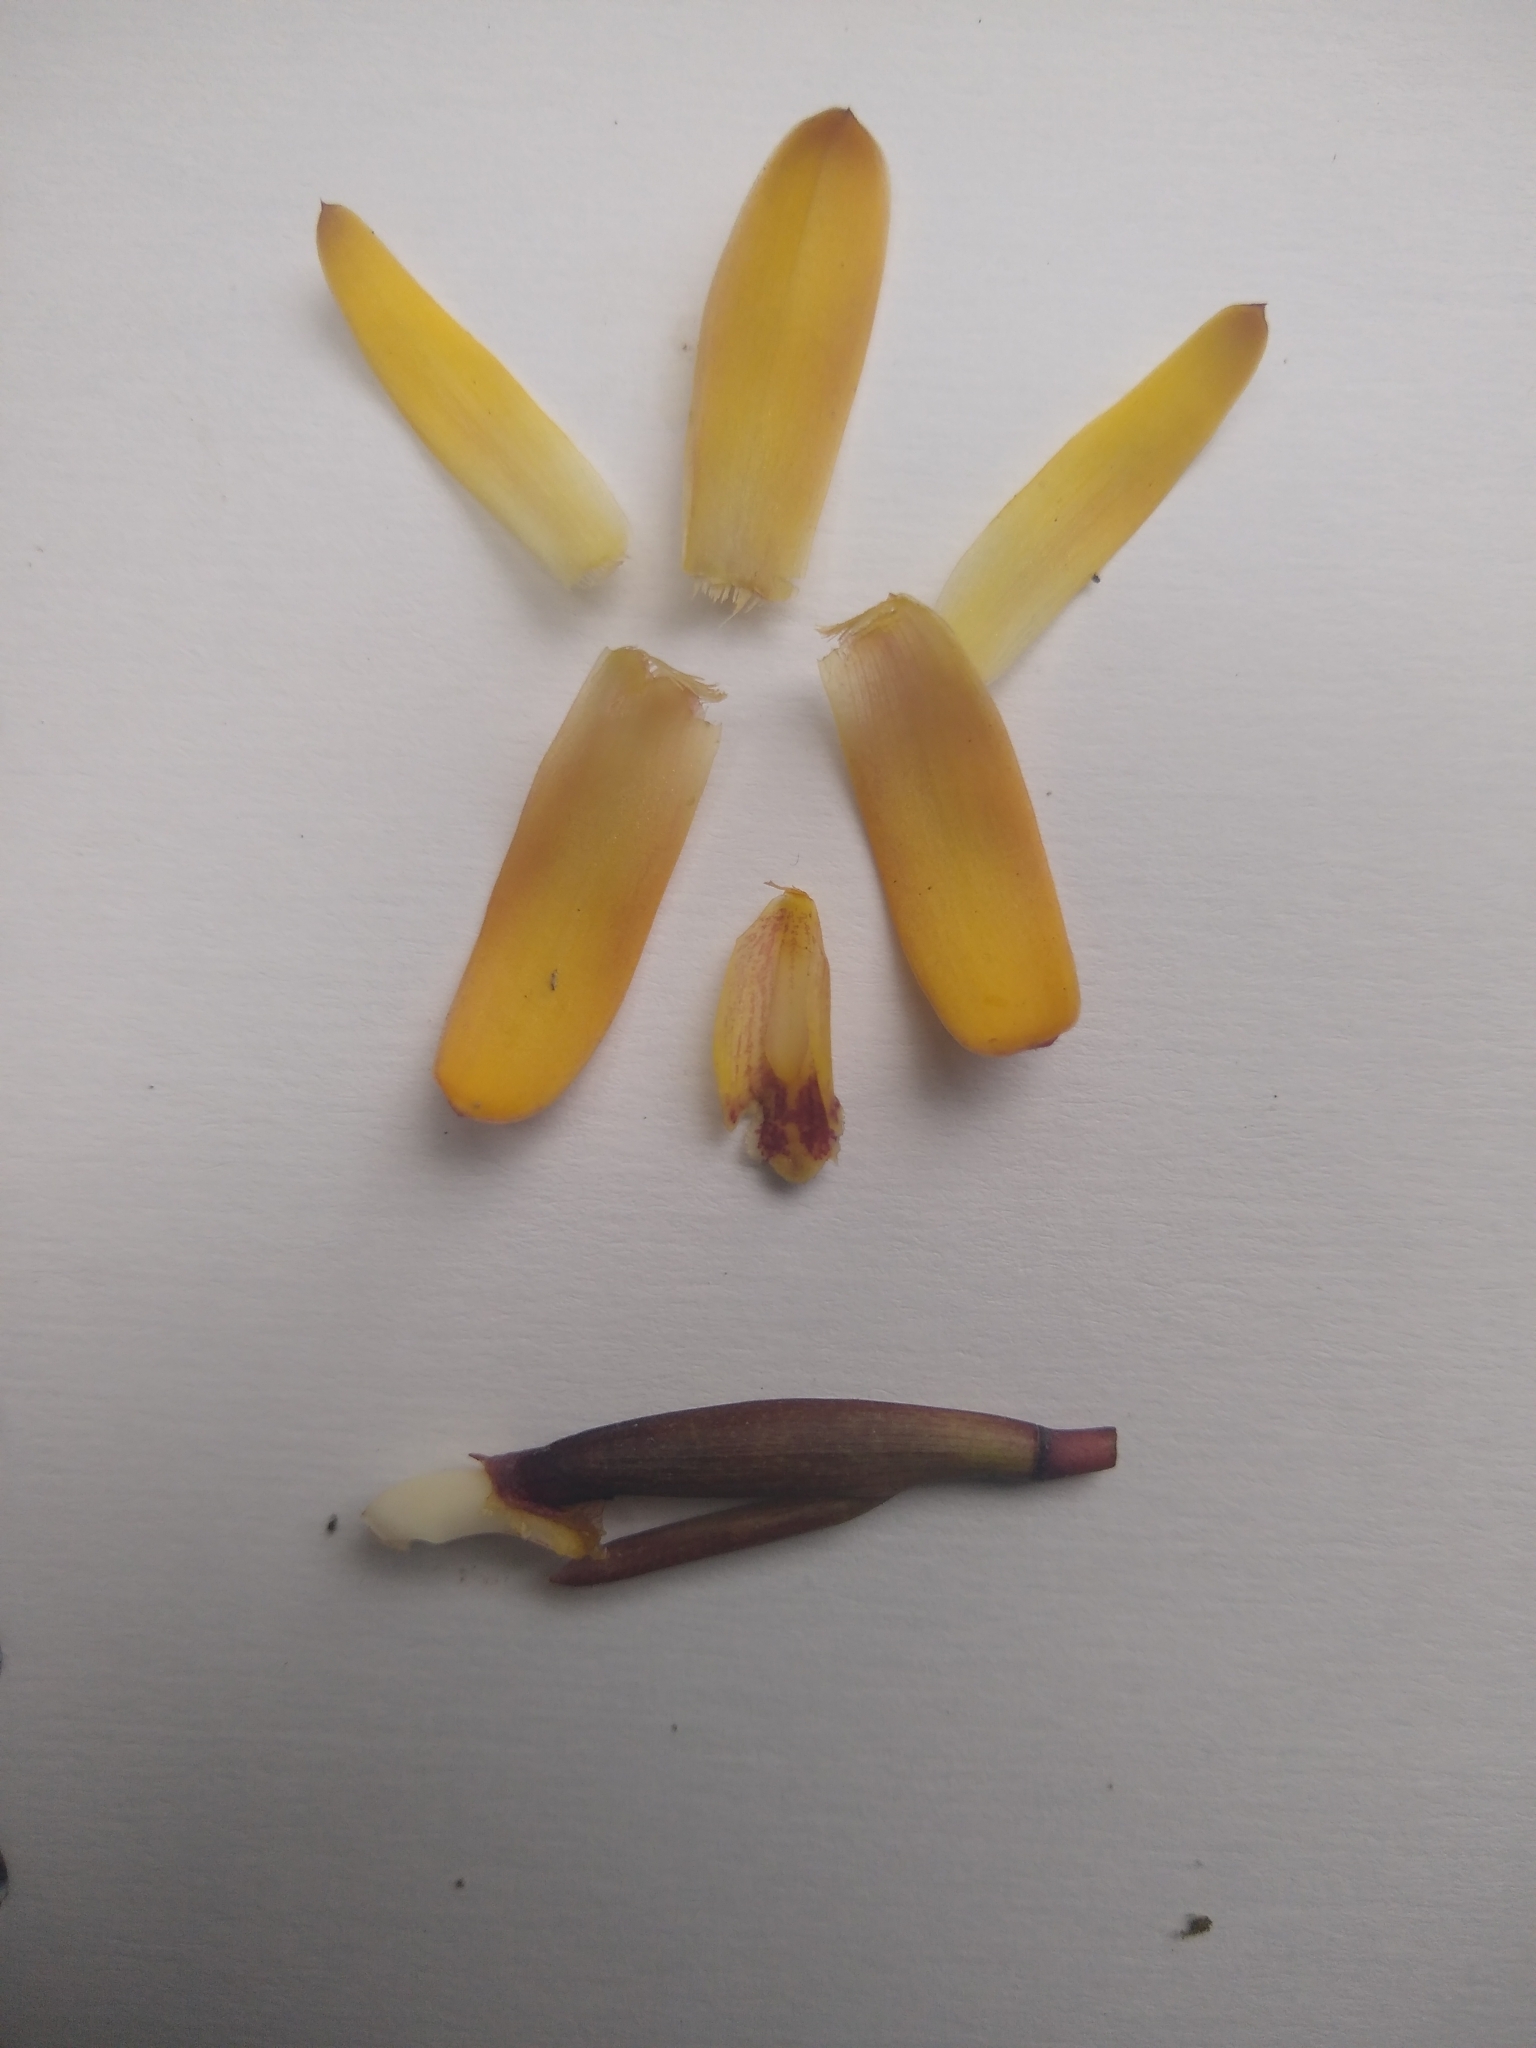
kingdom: Plantae
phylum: Tracheophyta
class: Liliopsida
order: Asparagales
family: Orchidaceae
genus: Maxillaria
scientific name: Maxillaria porrecta
